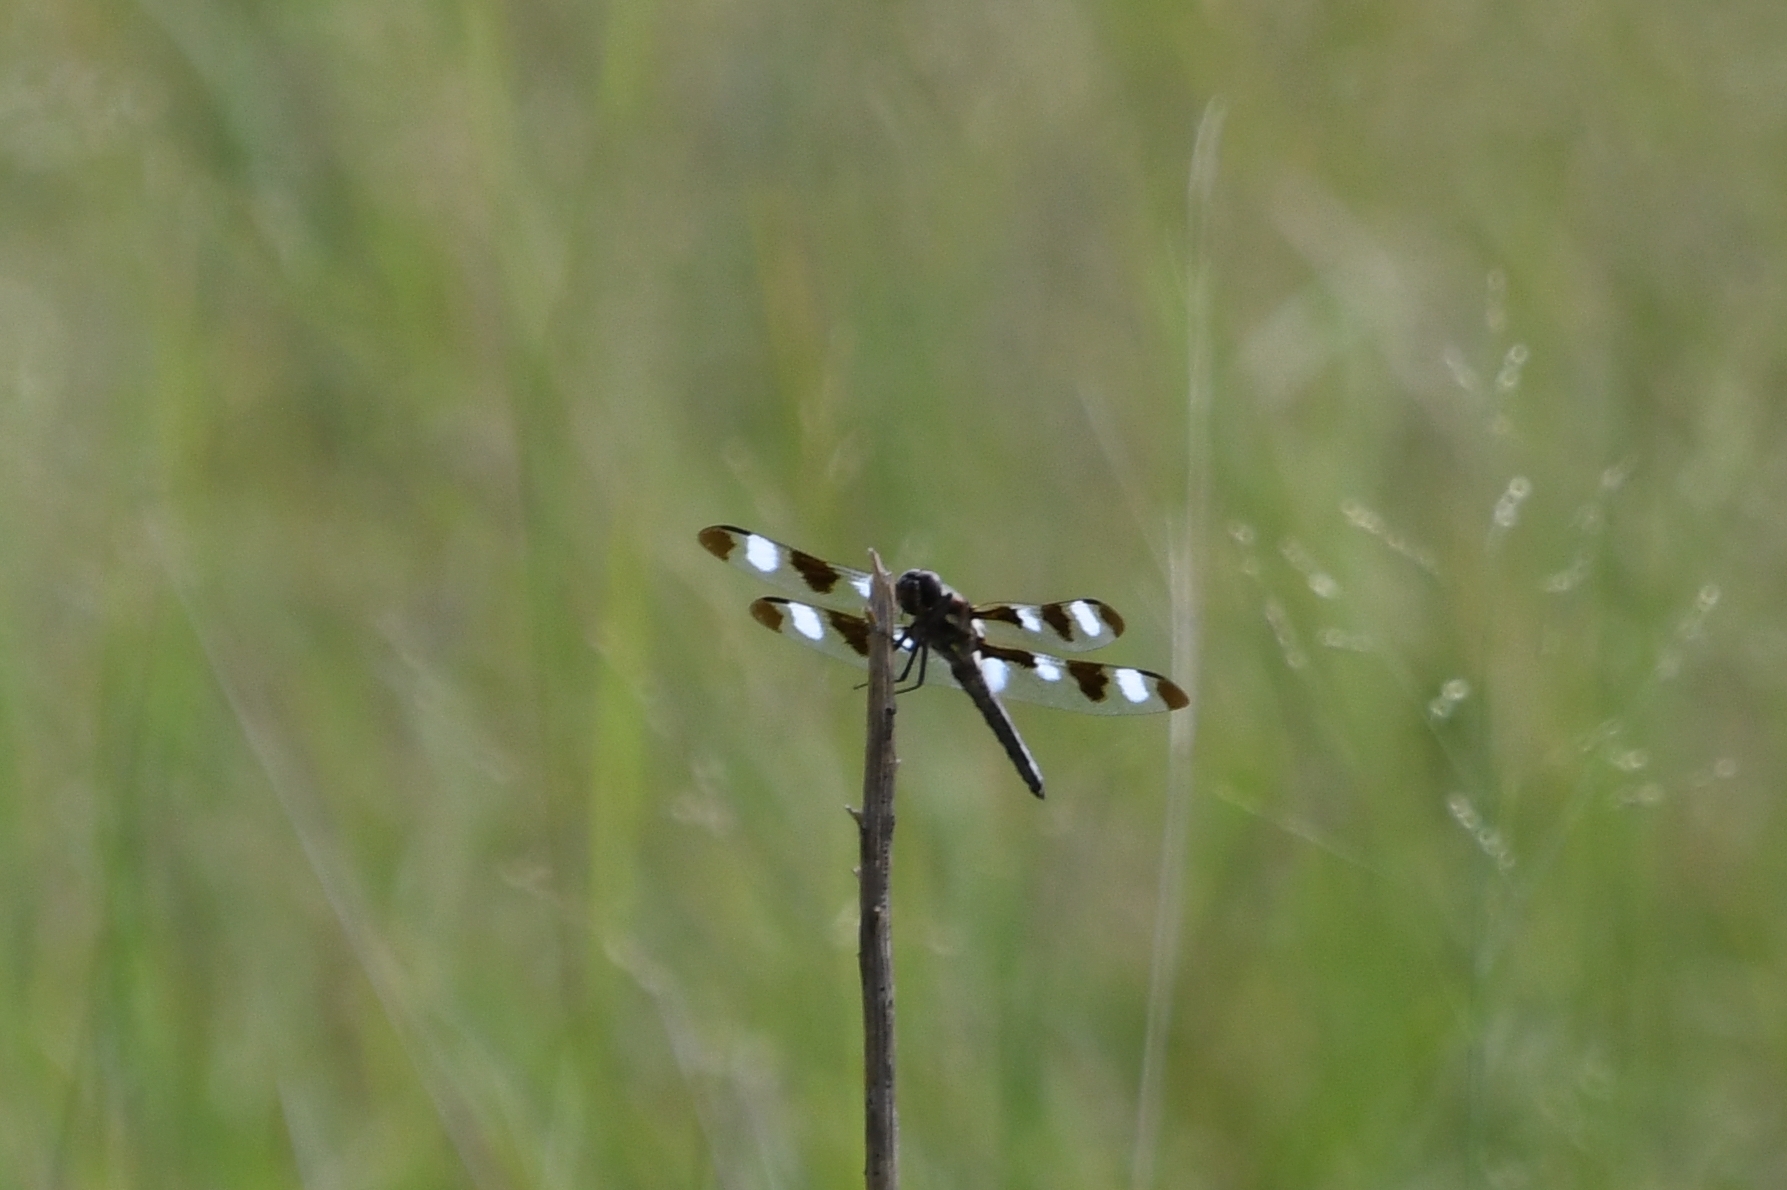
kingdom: Animalia
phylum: Arthropoda
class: Insecta
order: Odonata
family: Libellulidae
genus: Libellula
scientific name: Libellula pulchella
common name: Twelve-spotted skimmer
